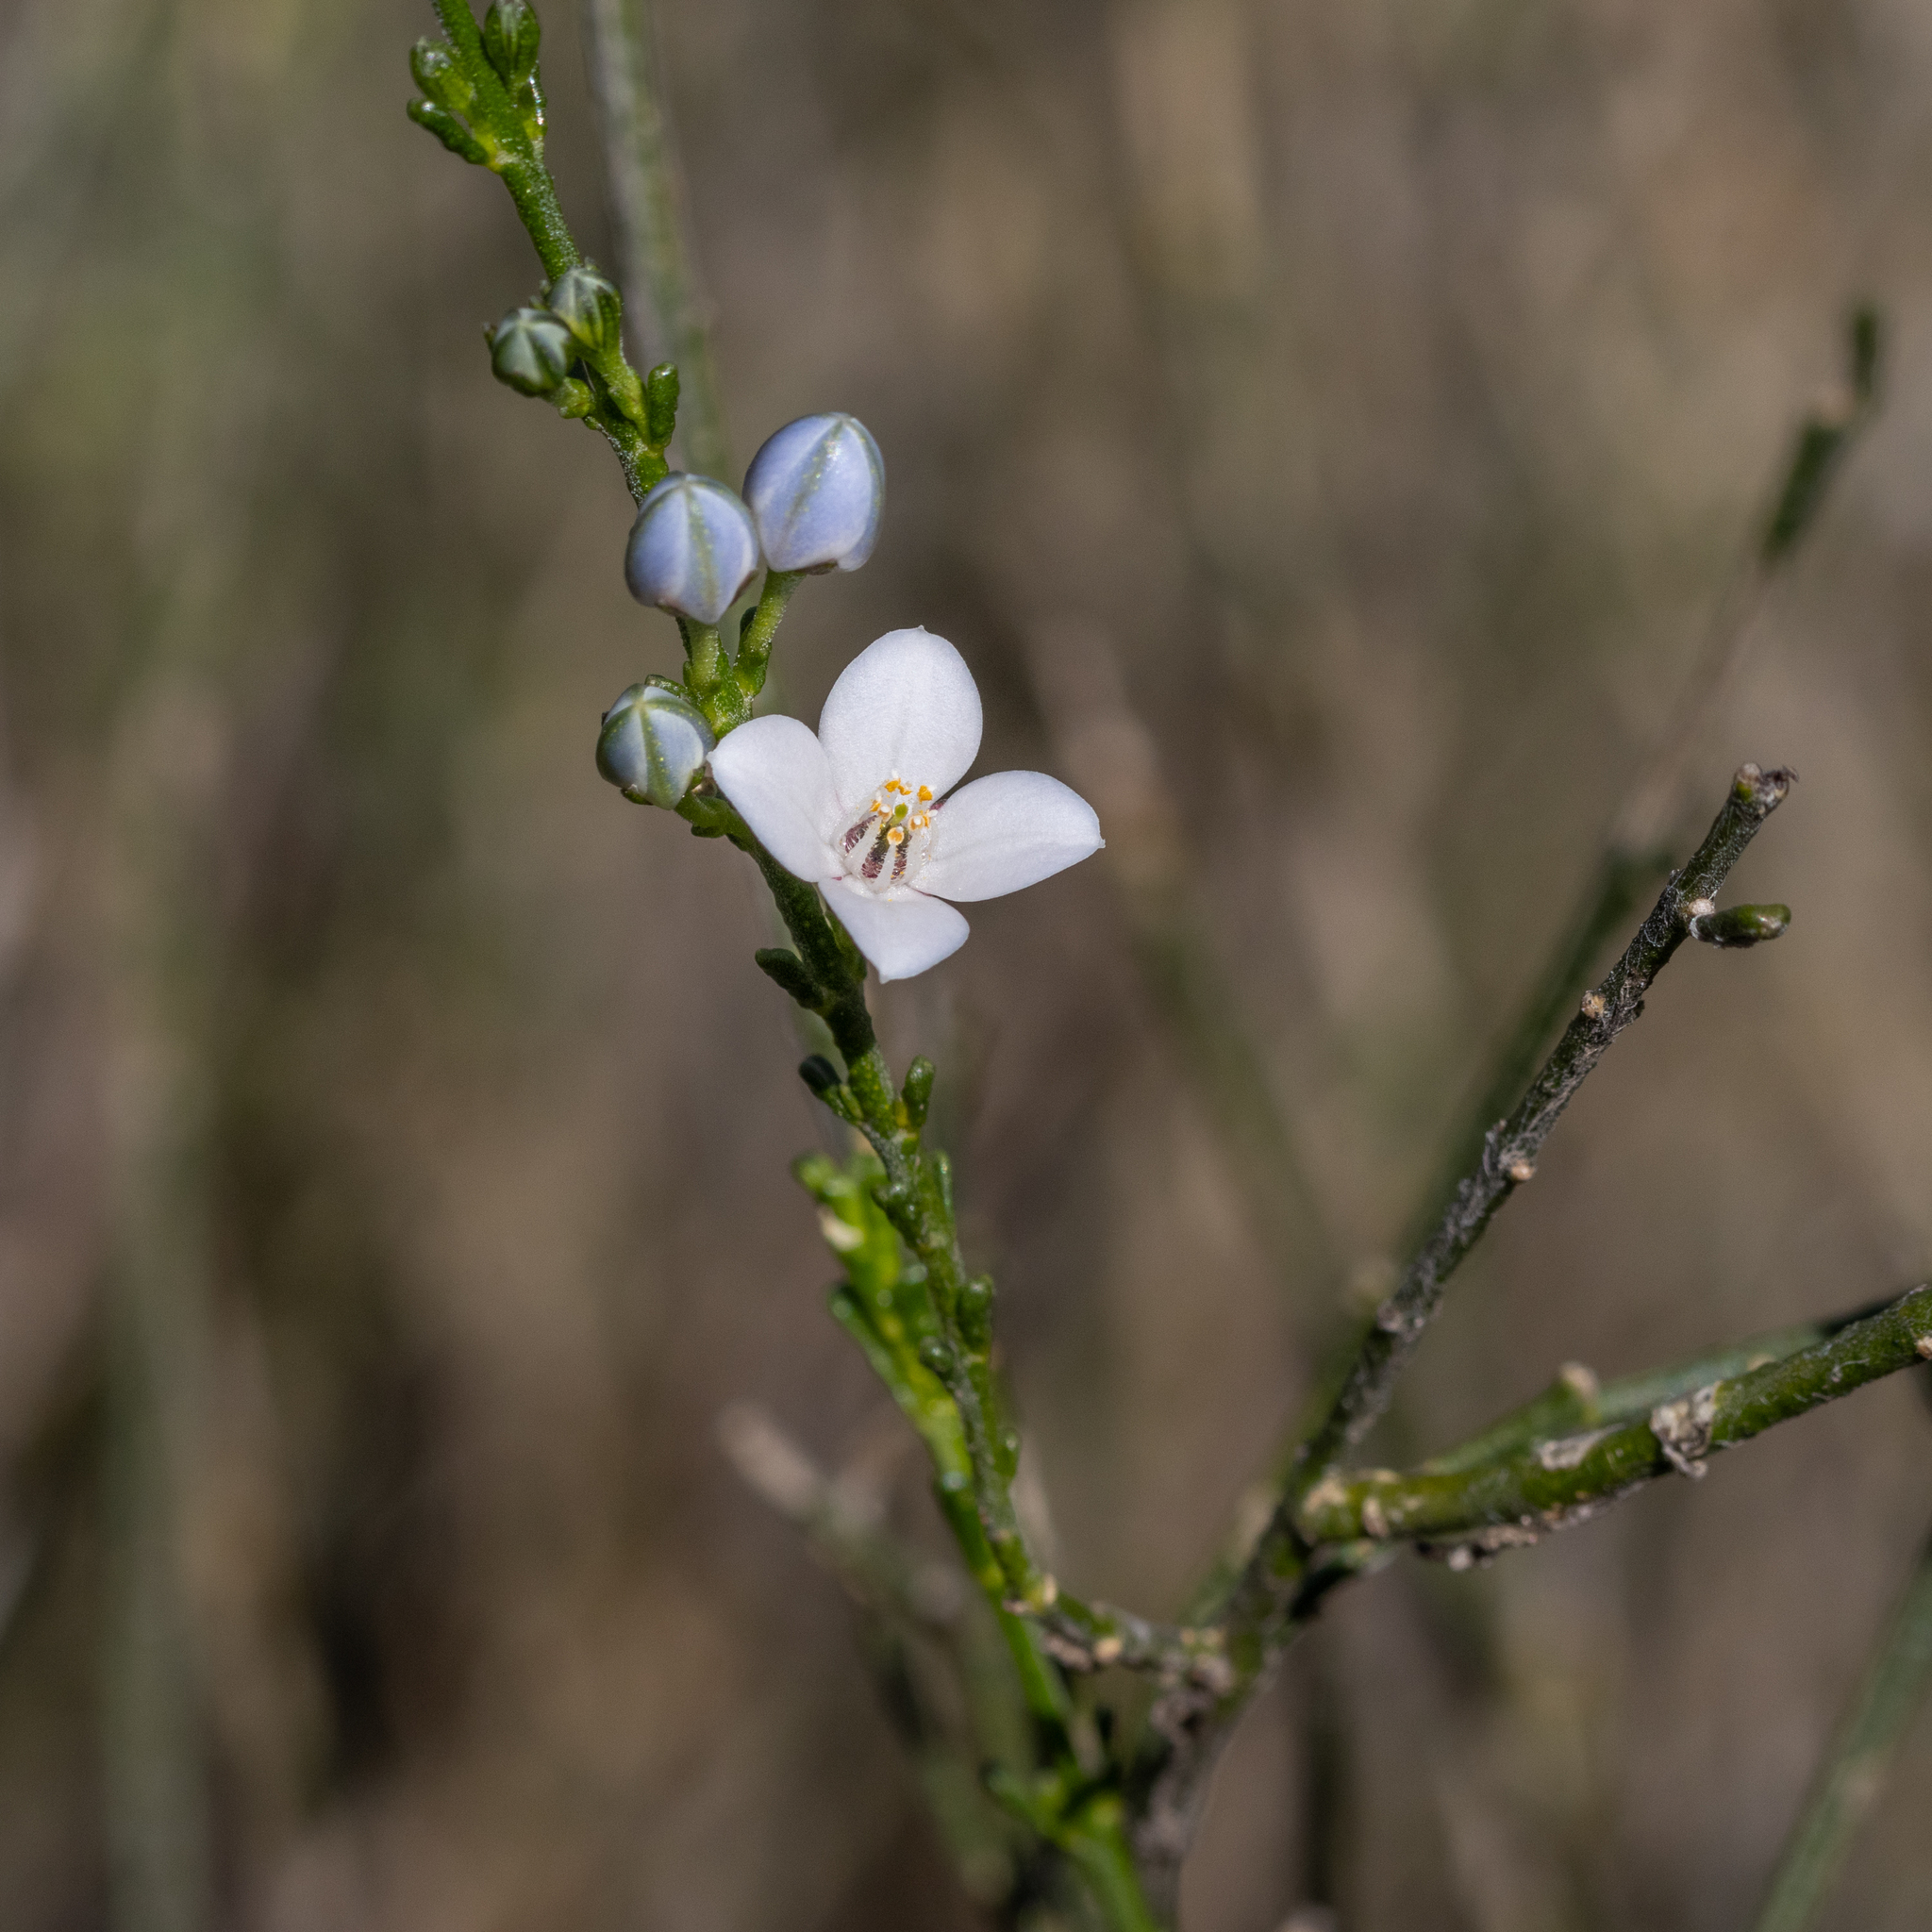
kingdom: Plantae
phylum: Tracheophyta
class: Magnoliopsida
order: Sapindales
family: Rutaceae
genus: Cyanothamnus
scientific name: Cyanothamnus coerulescens
